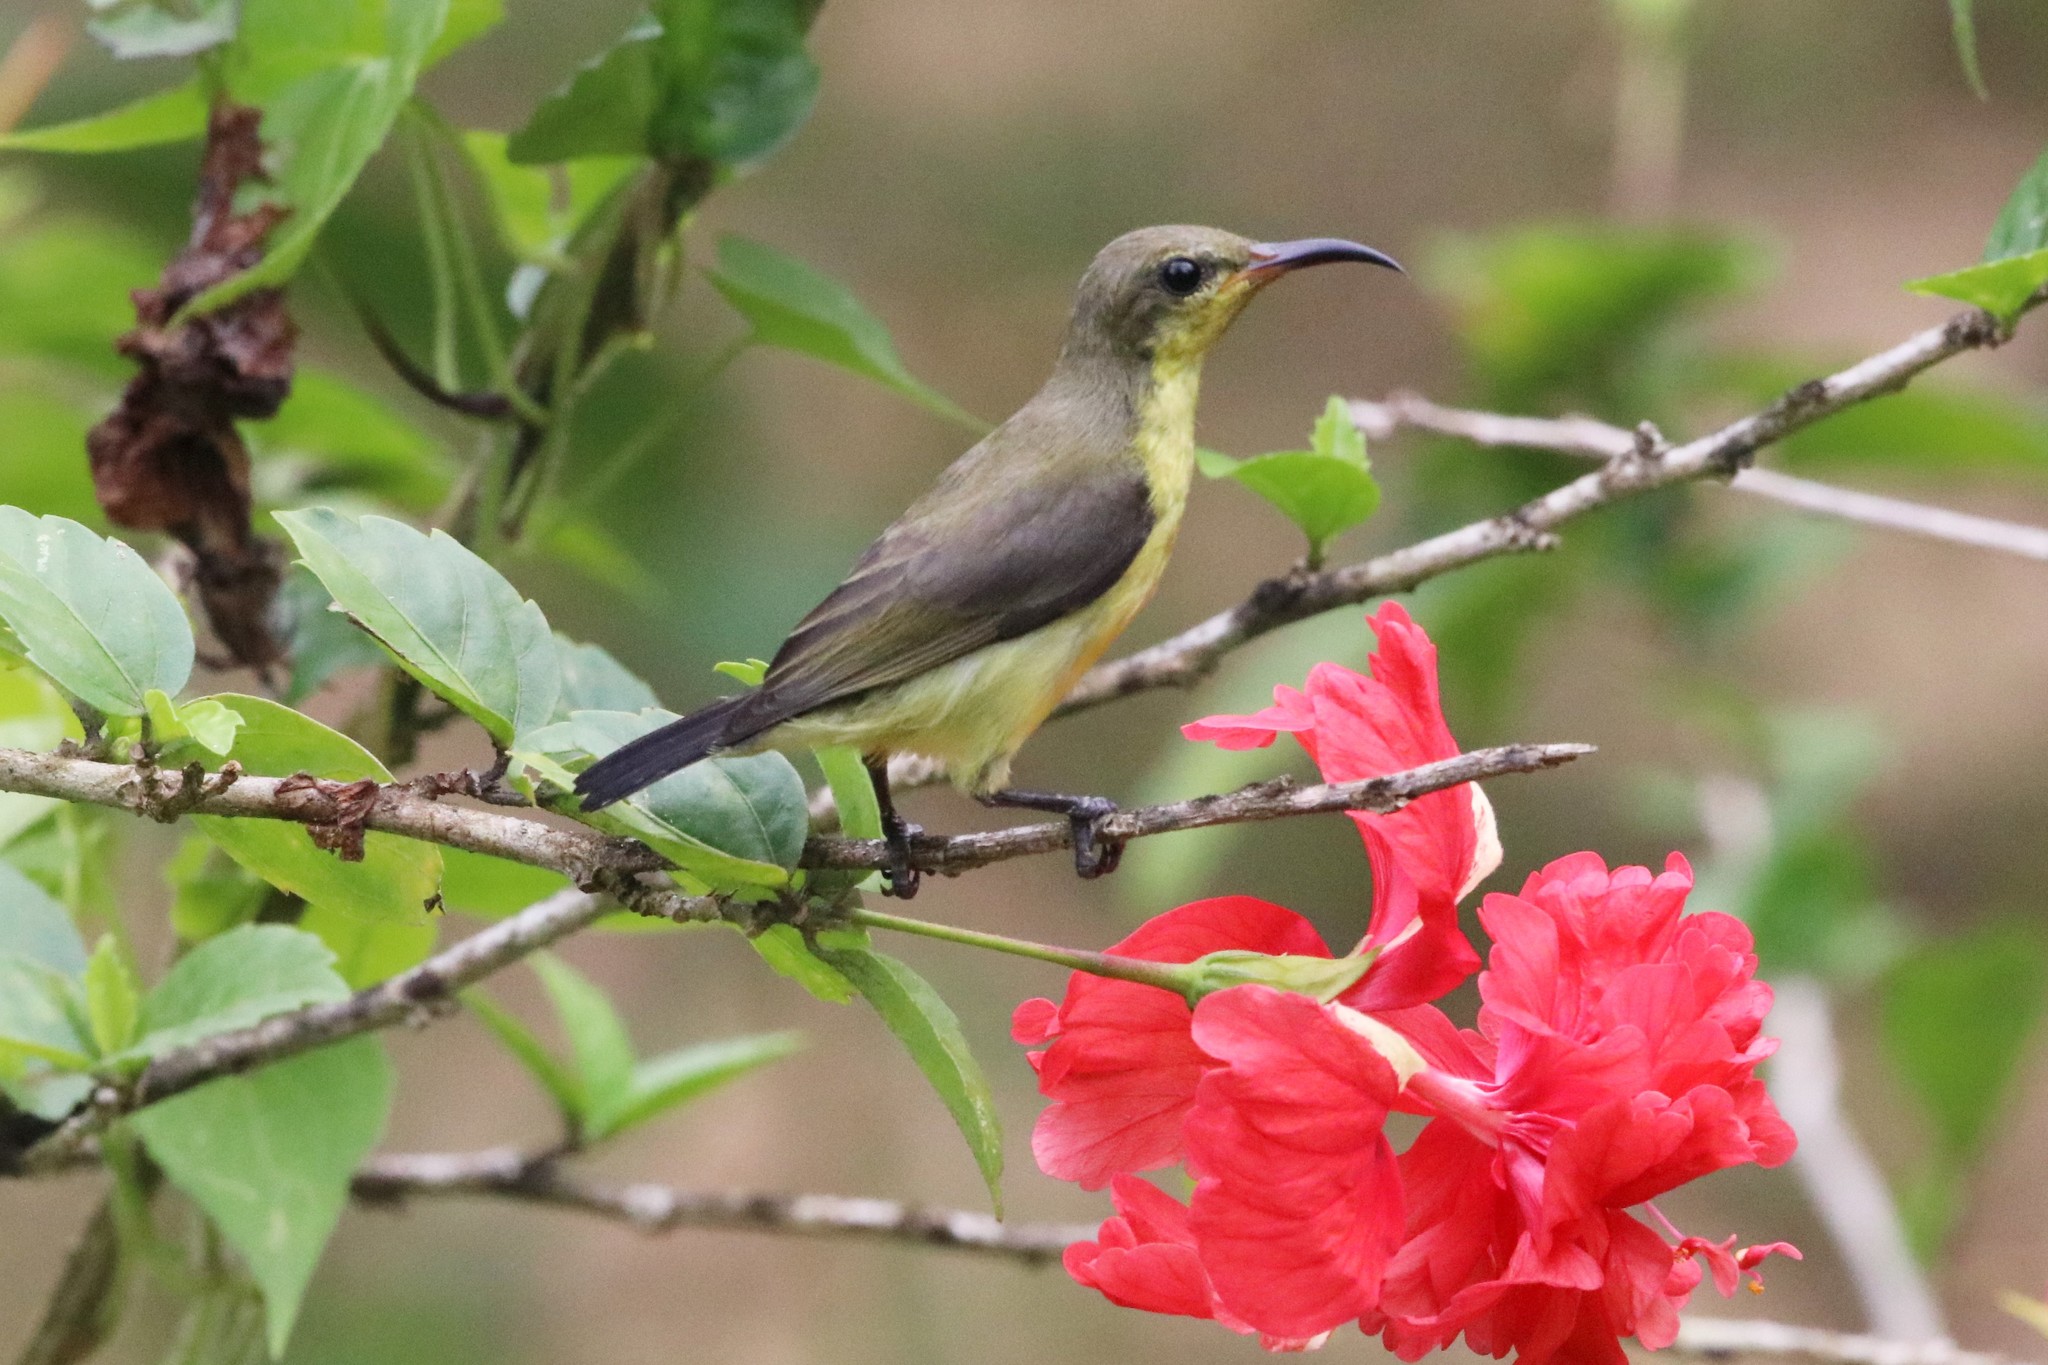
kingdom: Animalia
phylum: Chordata
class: Aves
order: Passeriformes
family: Nectariniidae
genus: Cinnyris
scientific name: Cinnyris
